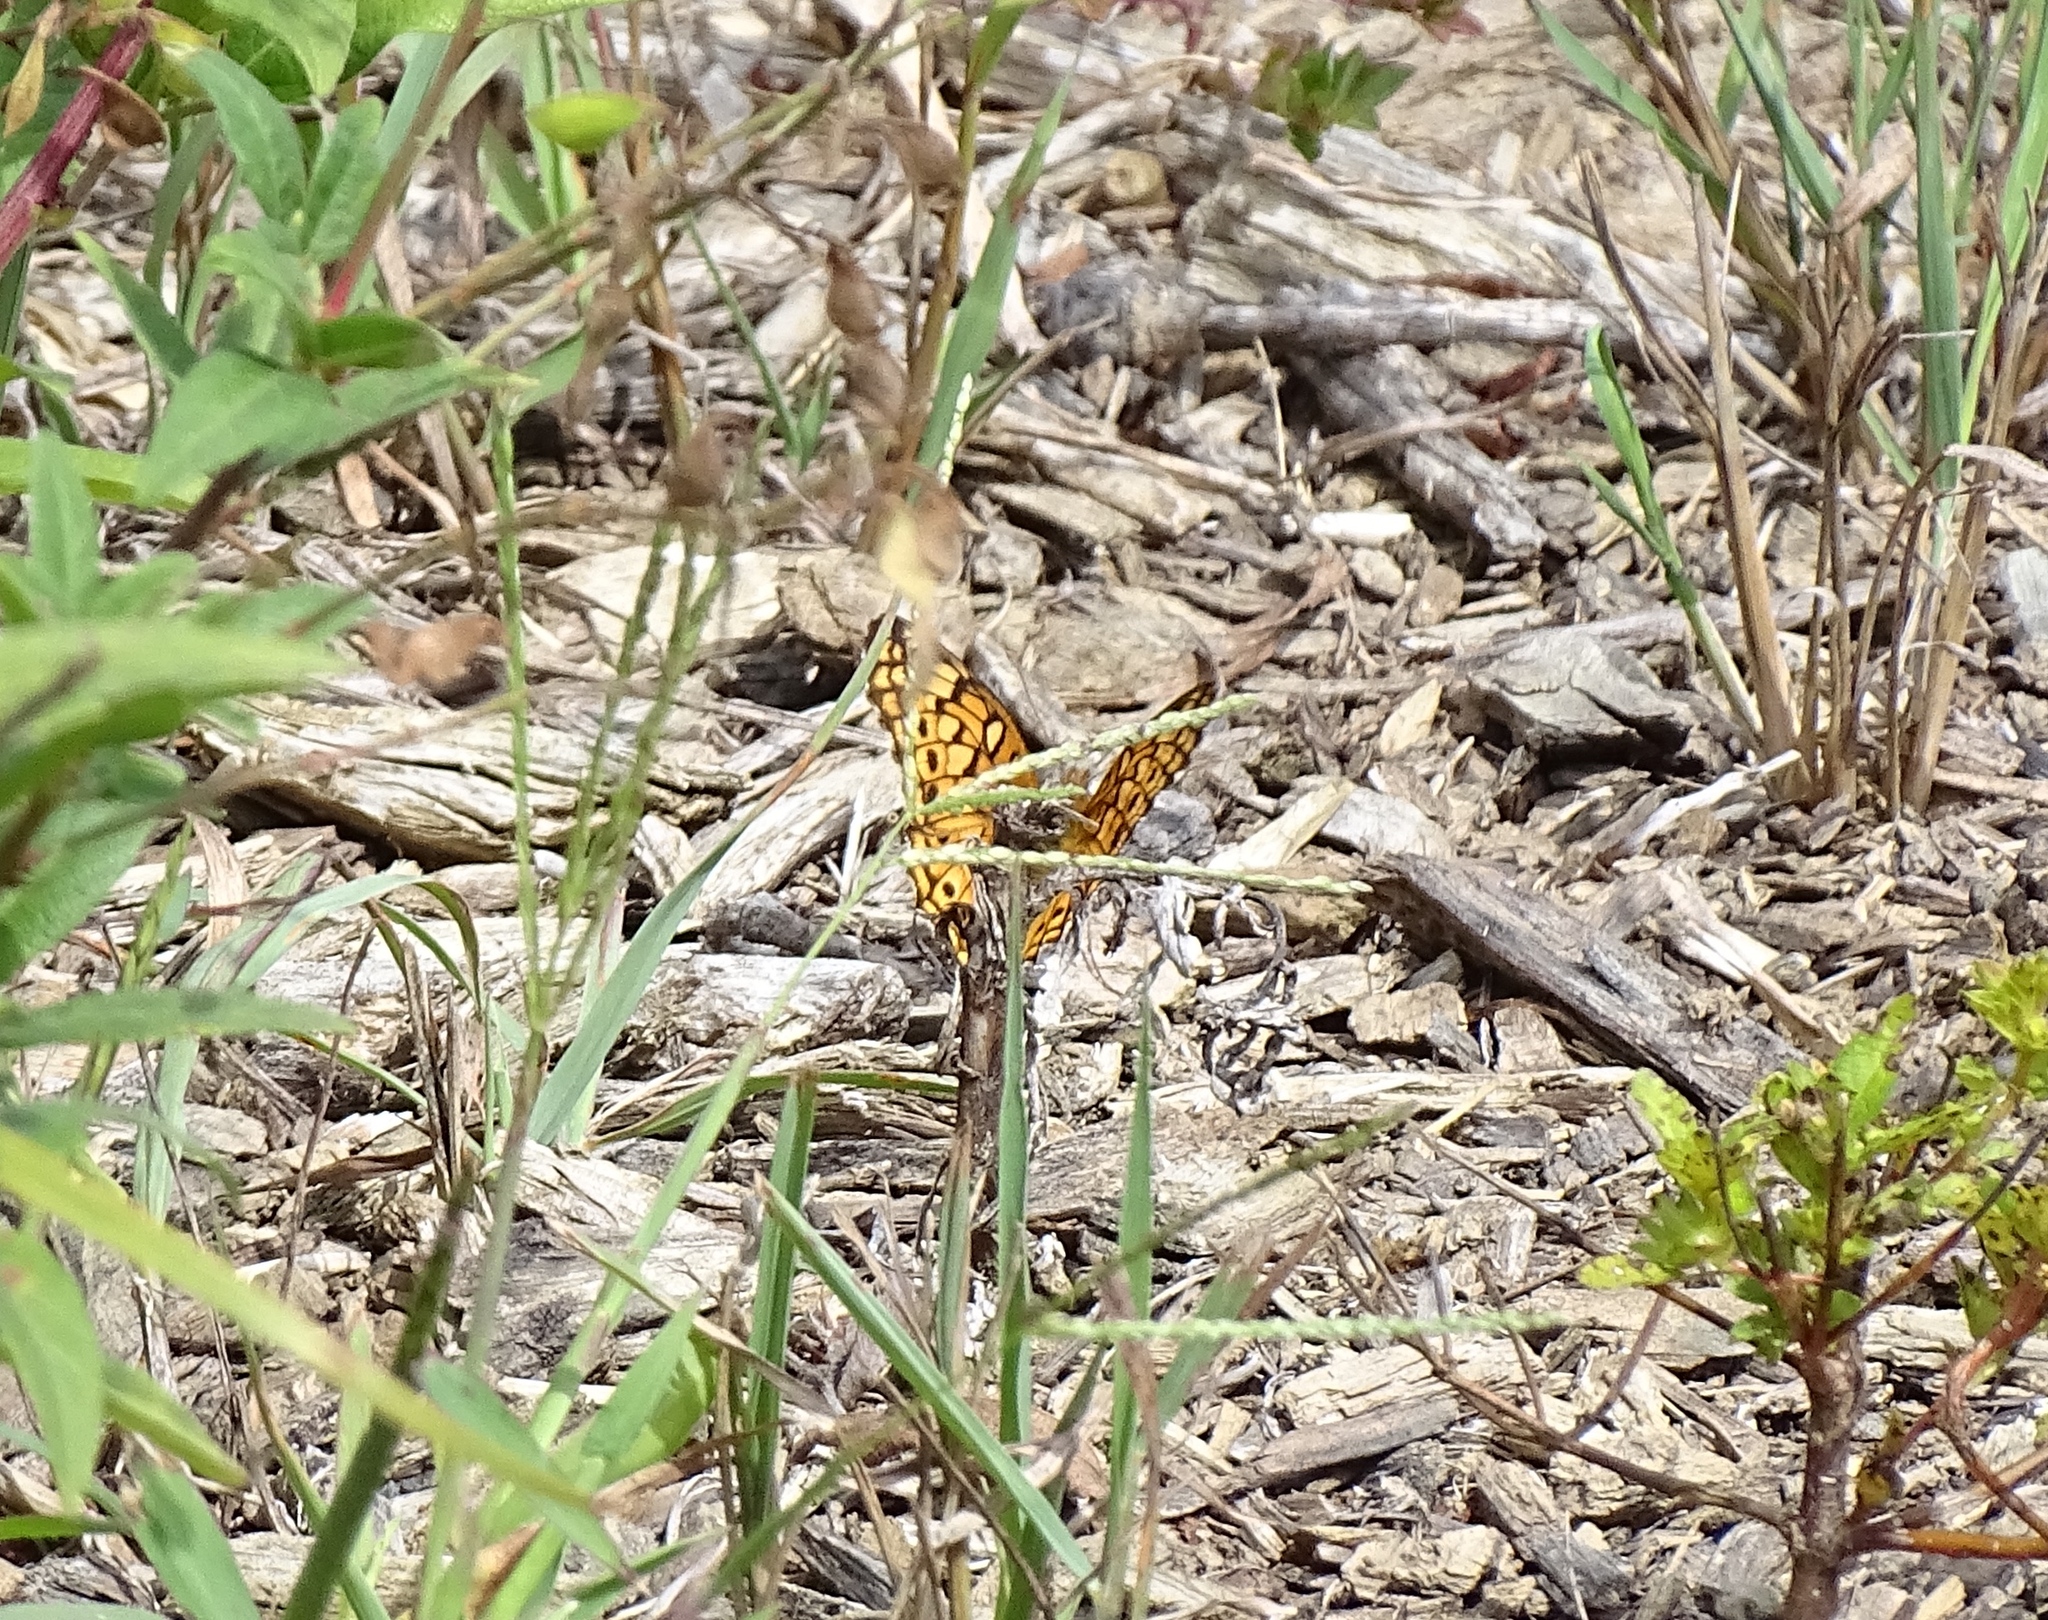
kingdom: Animalia
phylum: Arthropoda
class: Insecta
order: Lepidoptera
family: Nymphalidae
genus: Euptoieta
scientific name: Euptoieta claudia
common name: Variegated fritillary
